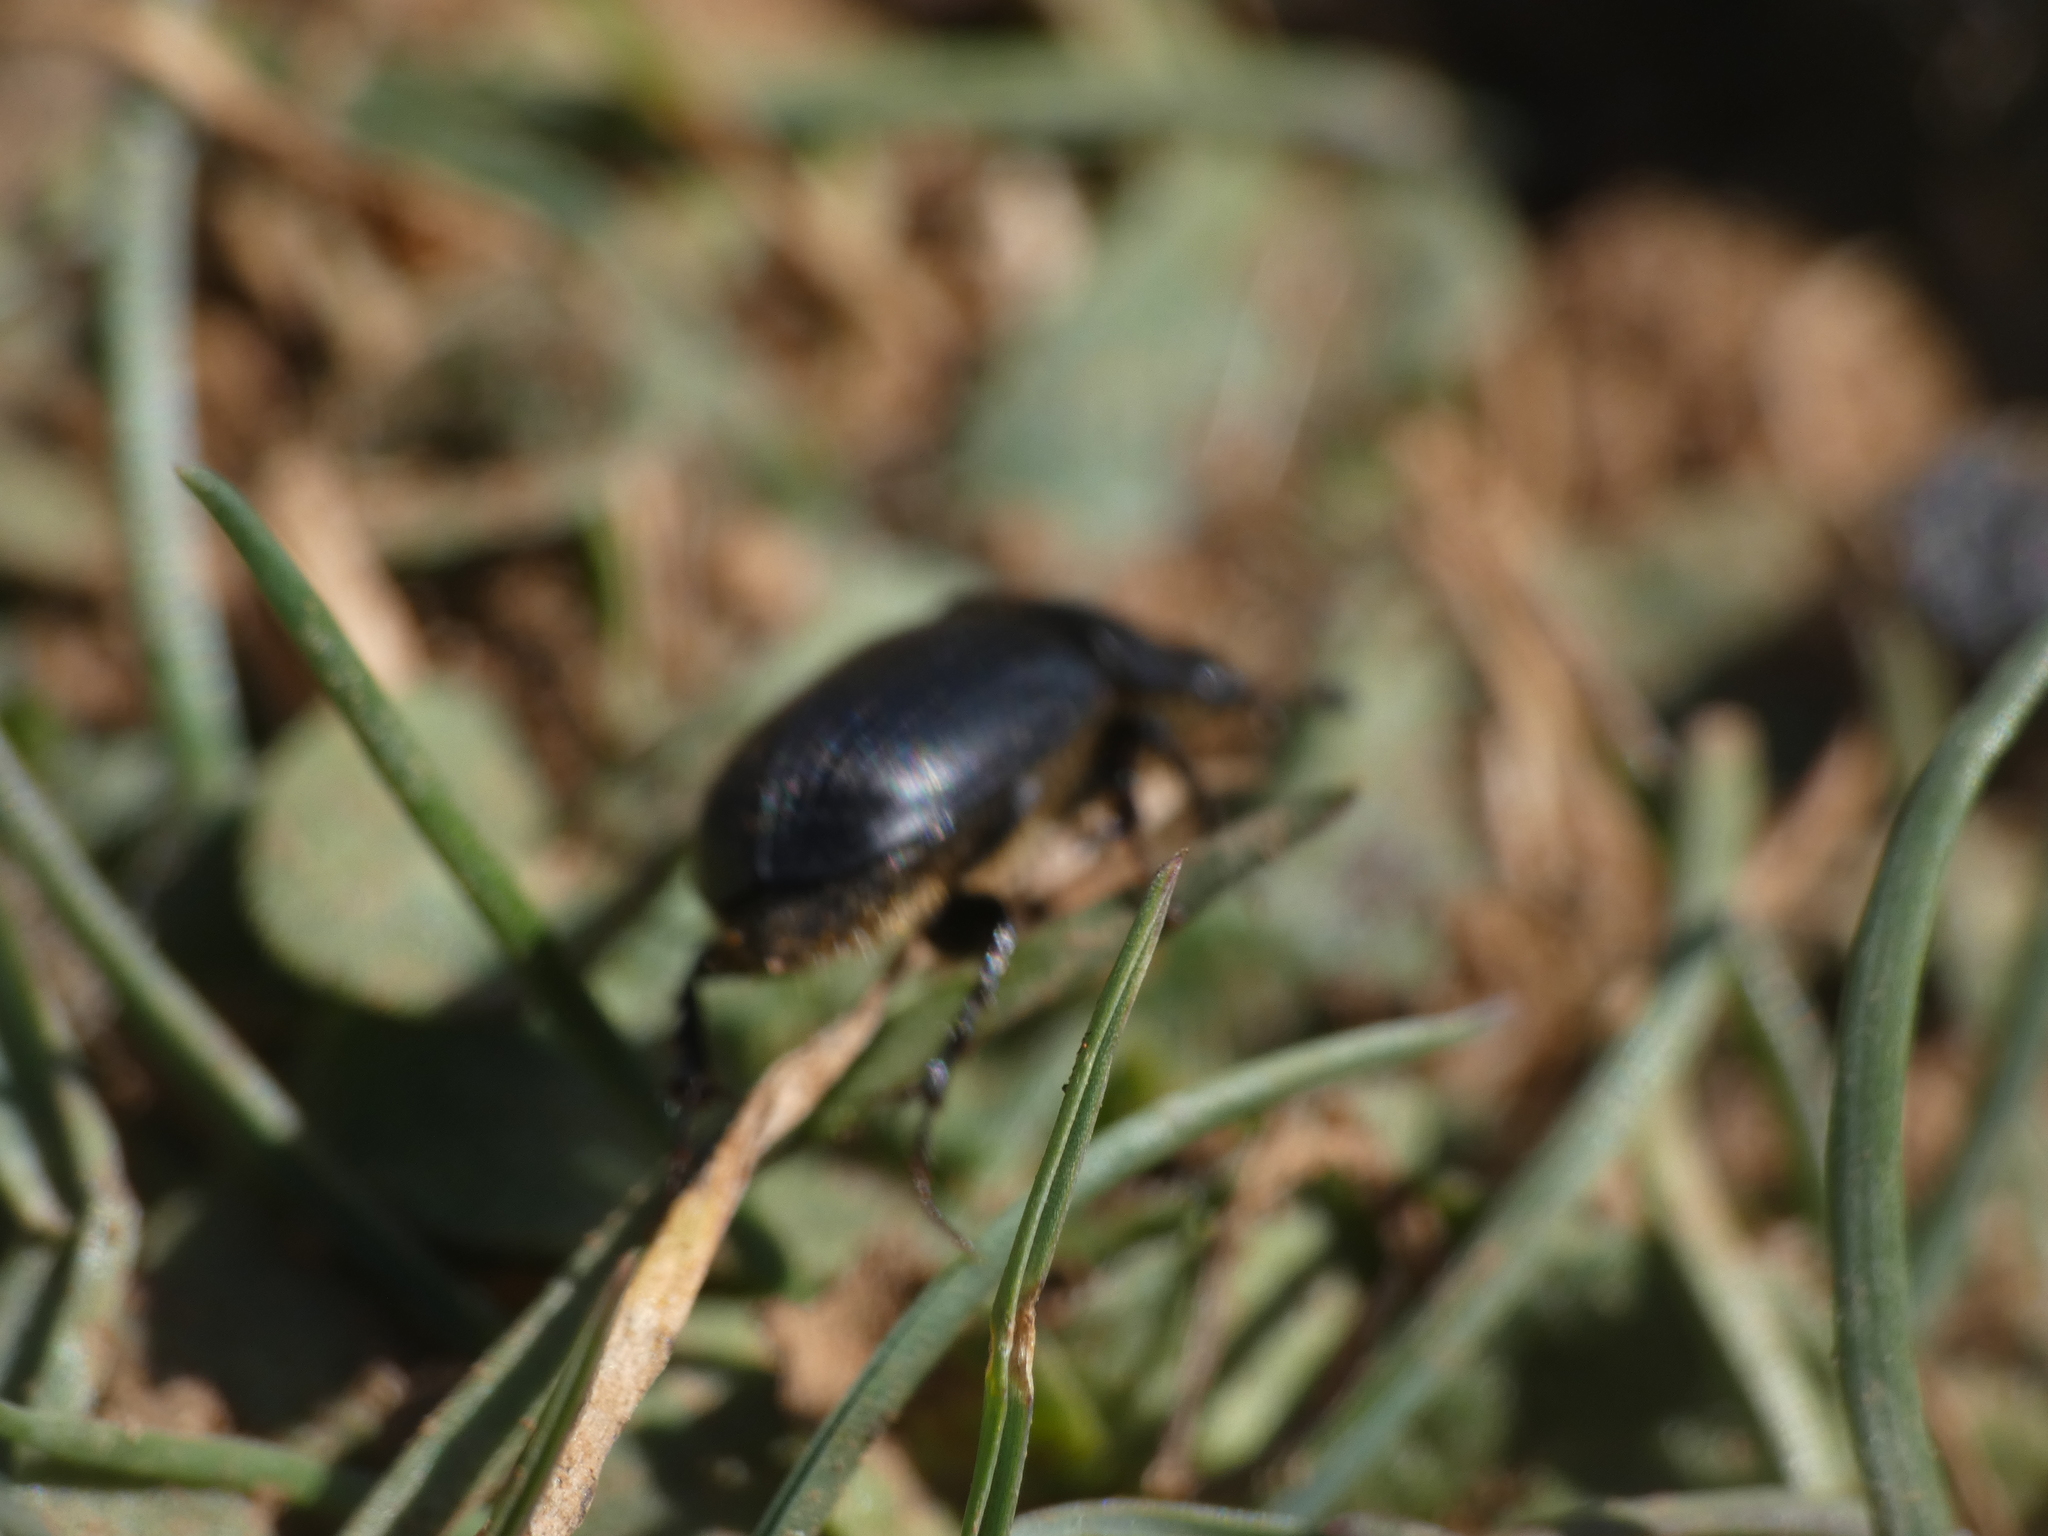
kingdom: Animalia
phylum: Arthropoda
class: Insecta
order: Coleoptera
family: Scarabaeidae
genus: Acrossus
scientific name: Acrossus luridus
